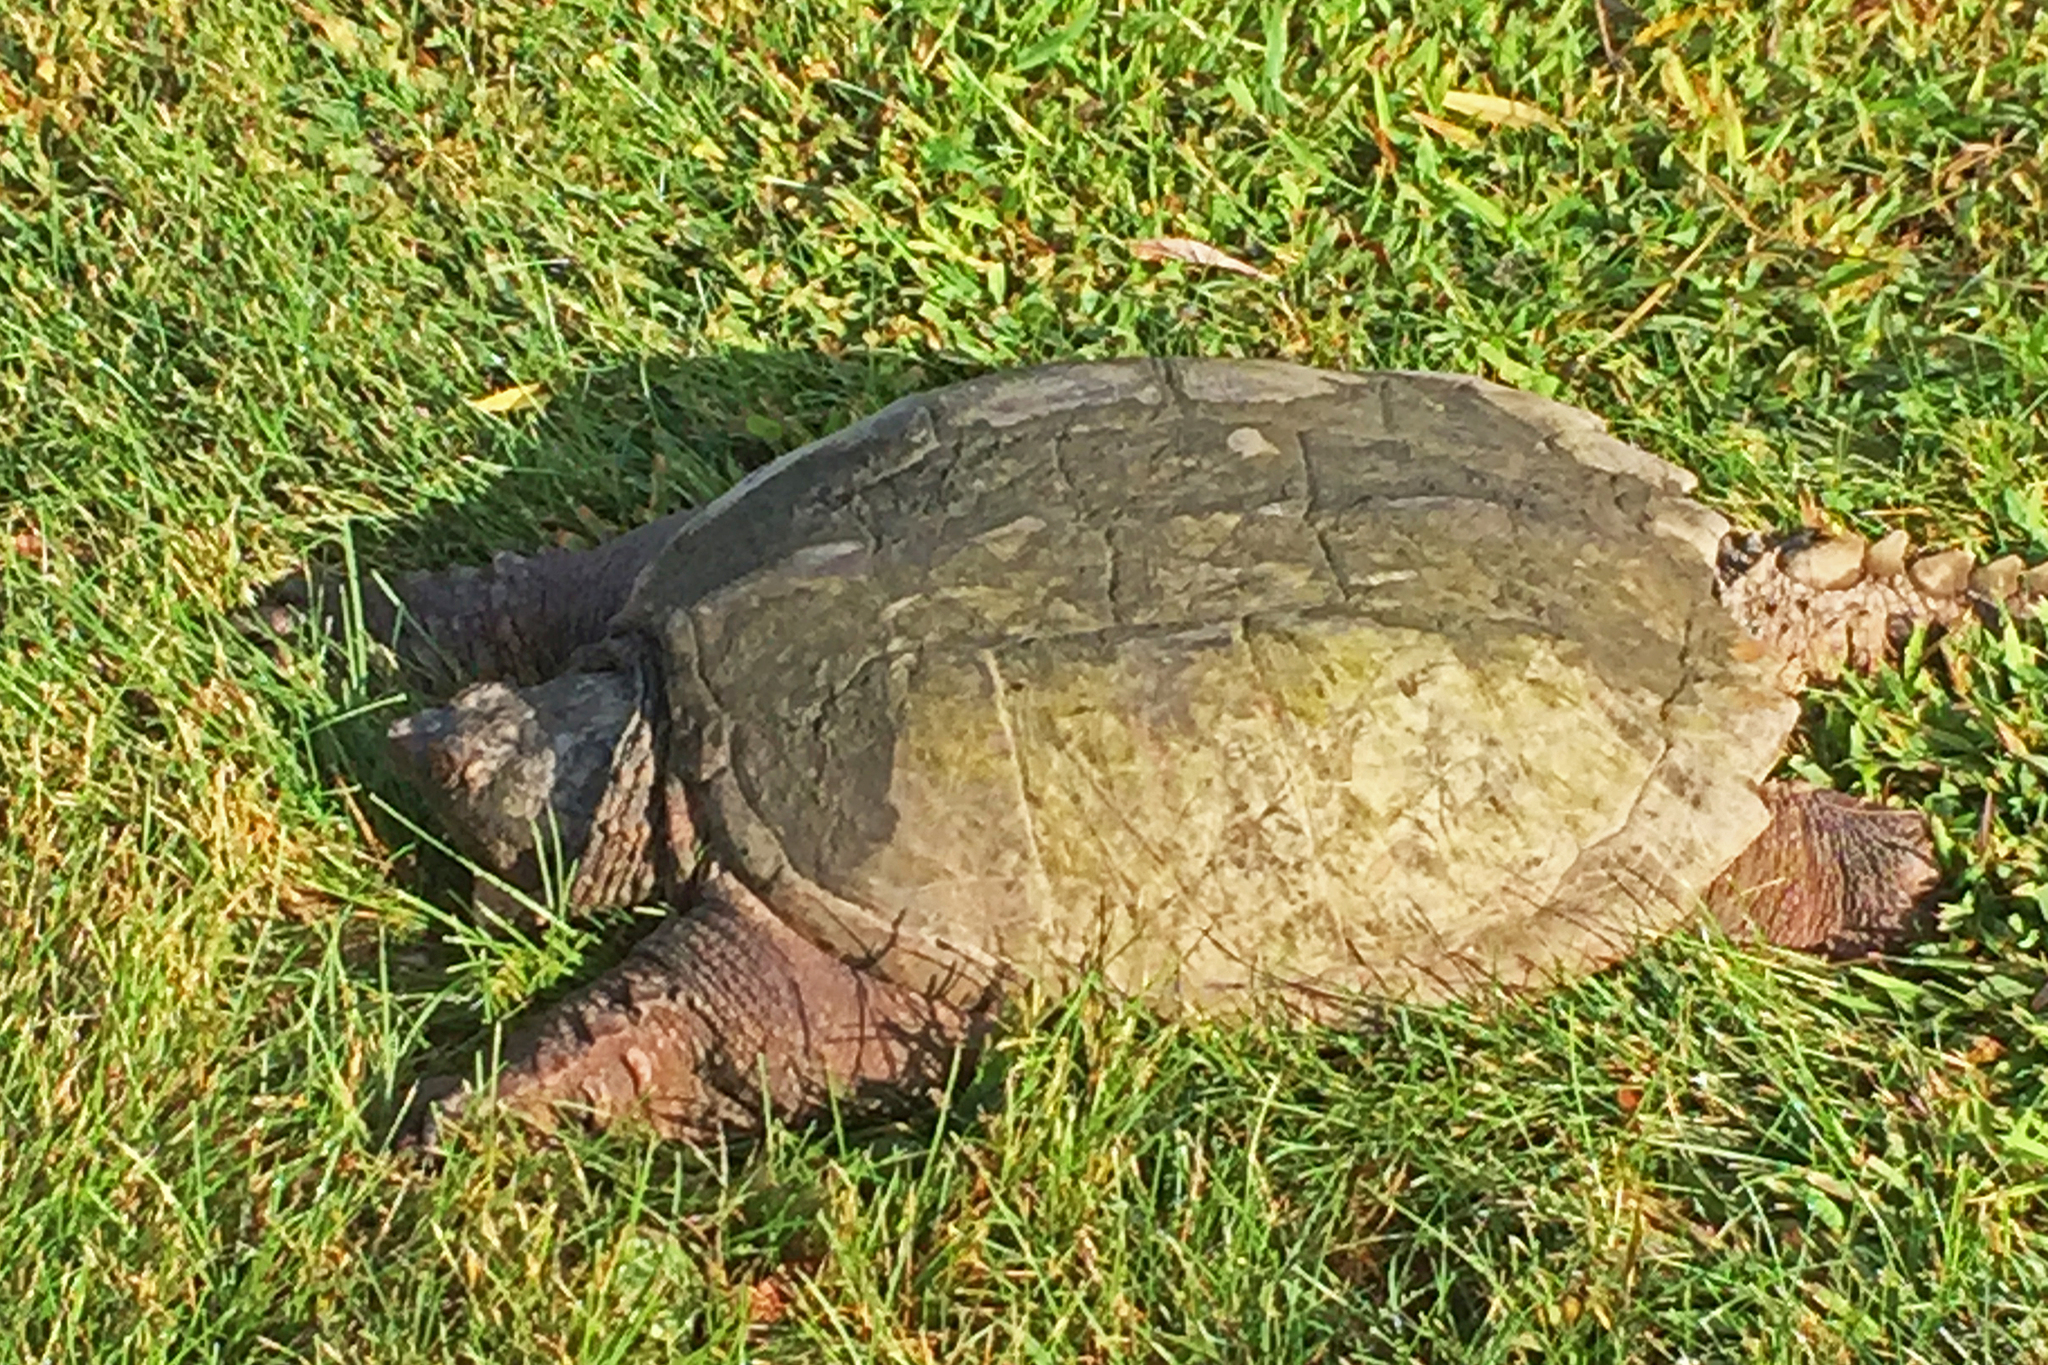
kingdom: Animalia
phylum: Chordata
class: Testudines
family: Chelydridae
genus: Chelydra
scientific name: Chelydra serpentina
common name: Common snapping turtle
